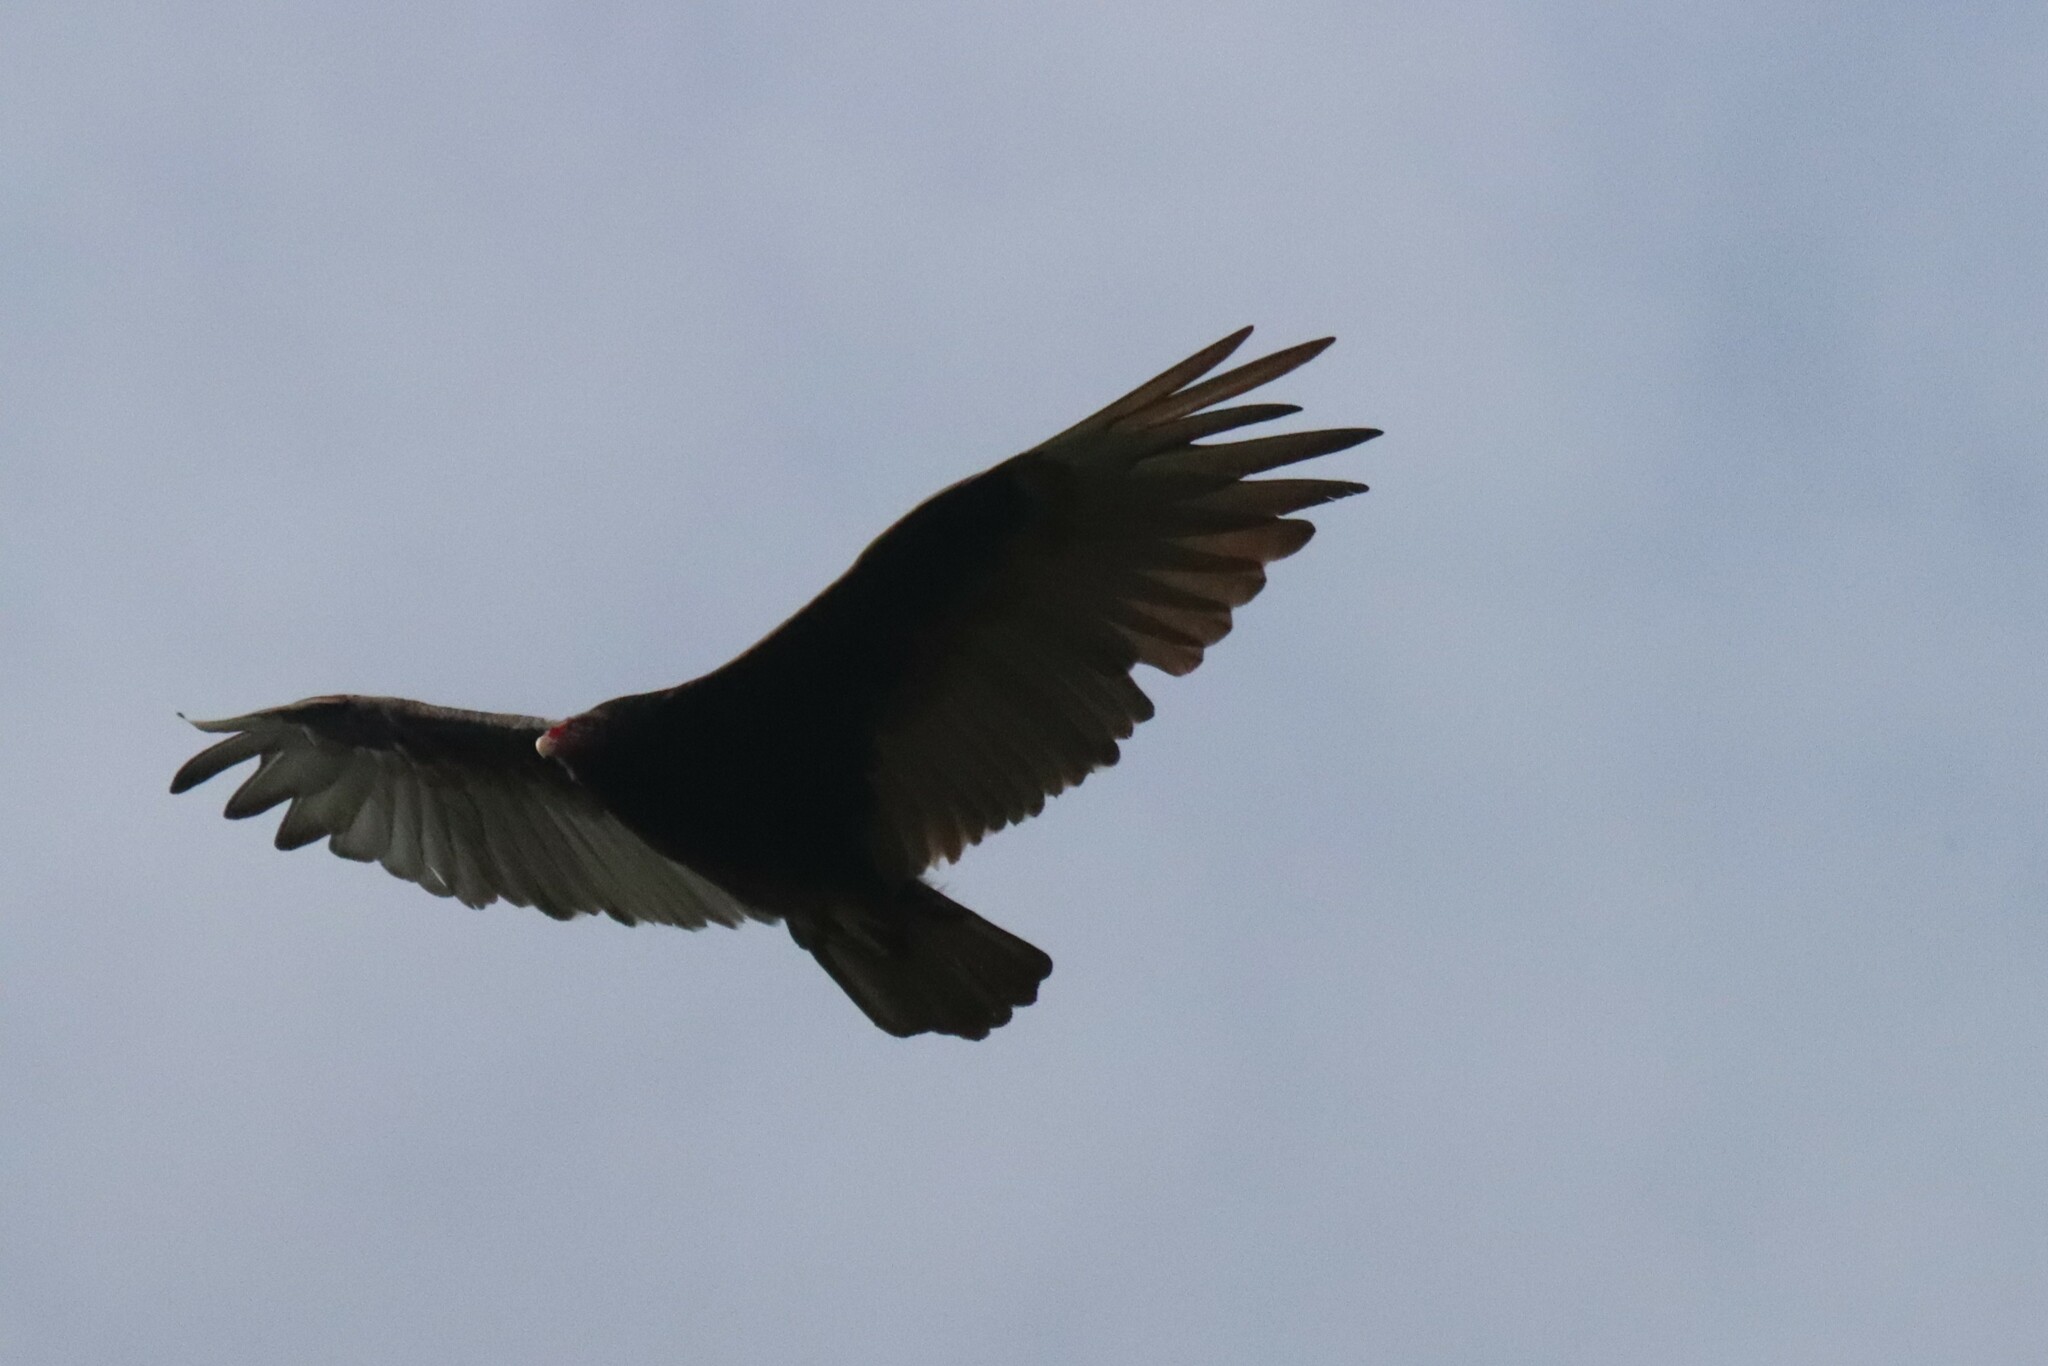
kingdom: Animalia
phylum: Chordata
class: Aves
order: Accipitriformes
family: Cathartidae
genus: Cathartes
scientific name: Cathartes aura
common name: Turkey vulture
